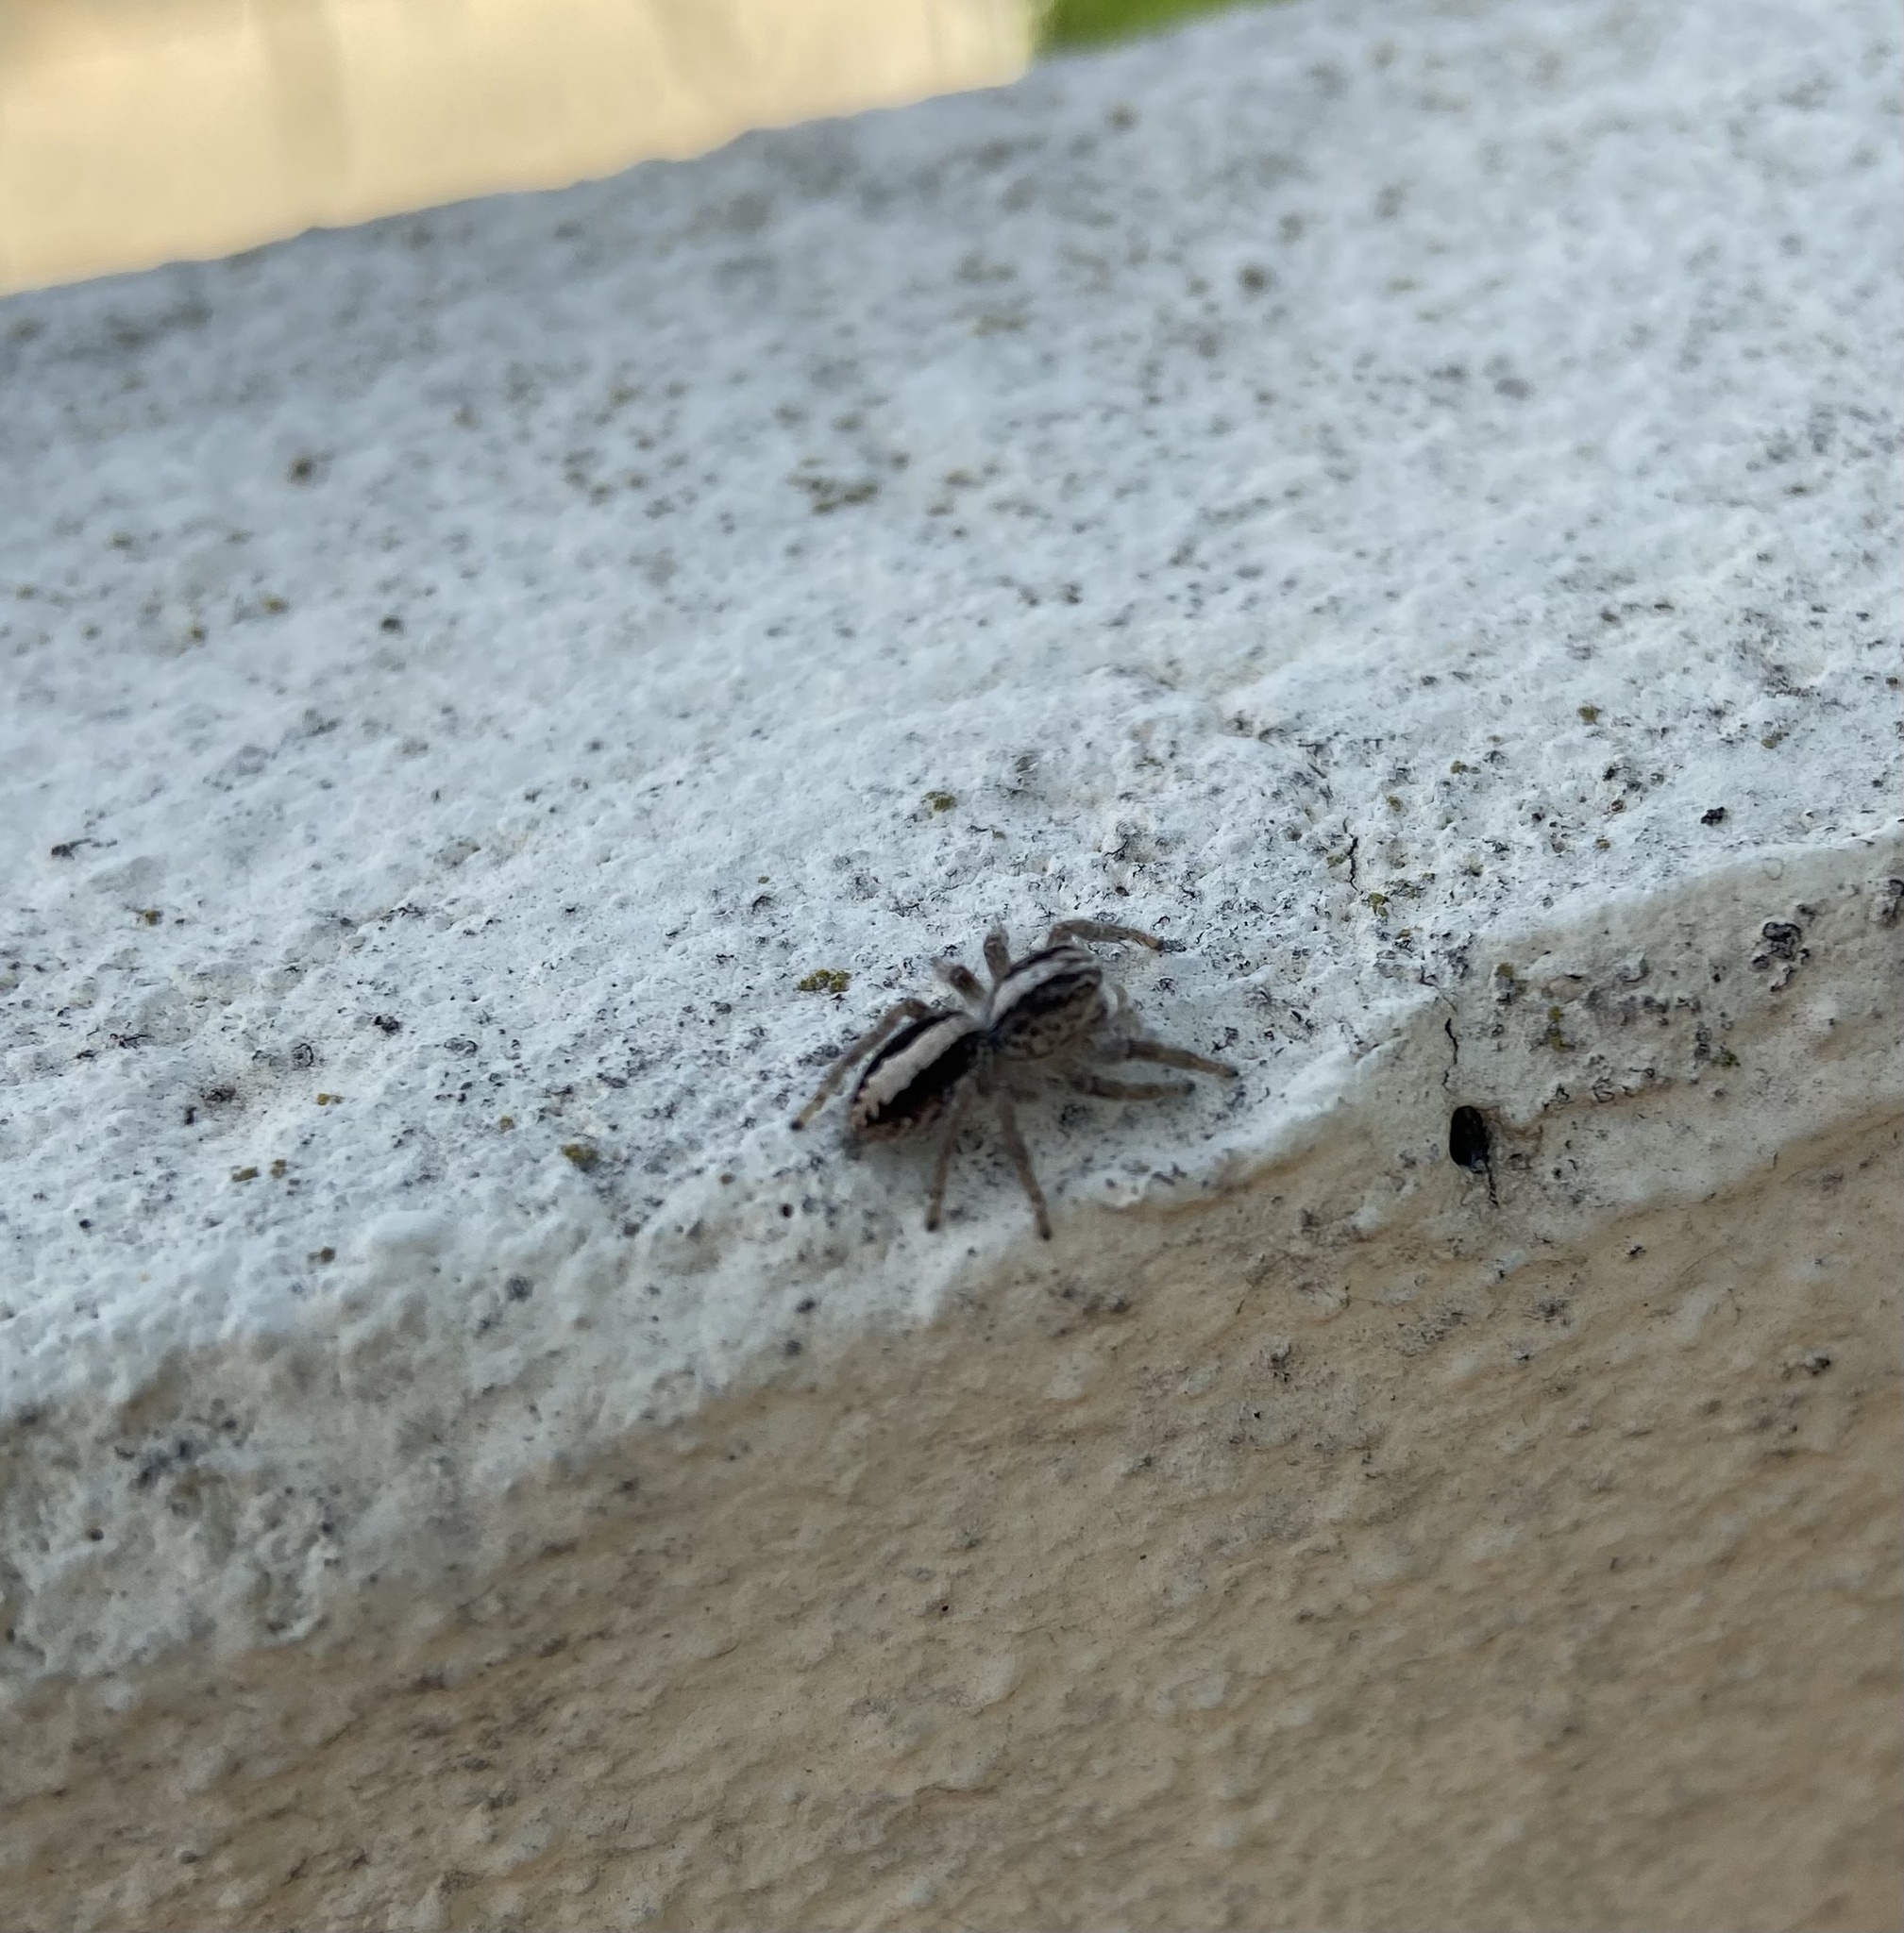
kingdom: Animalia
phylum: Arthropoda
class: Arachnida
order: Araneae
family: Salticidae
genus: Megafreya
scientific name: Megafreya sutrix
